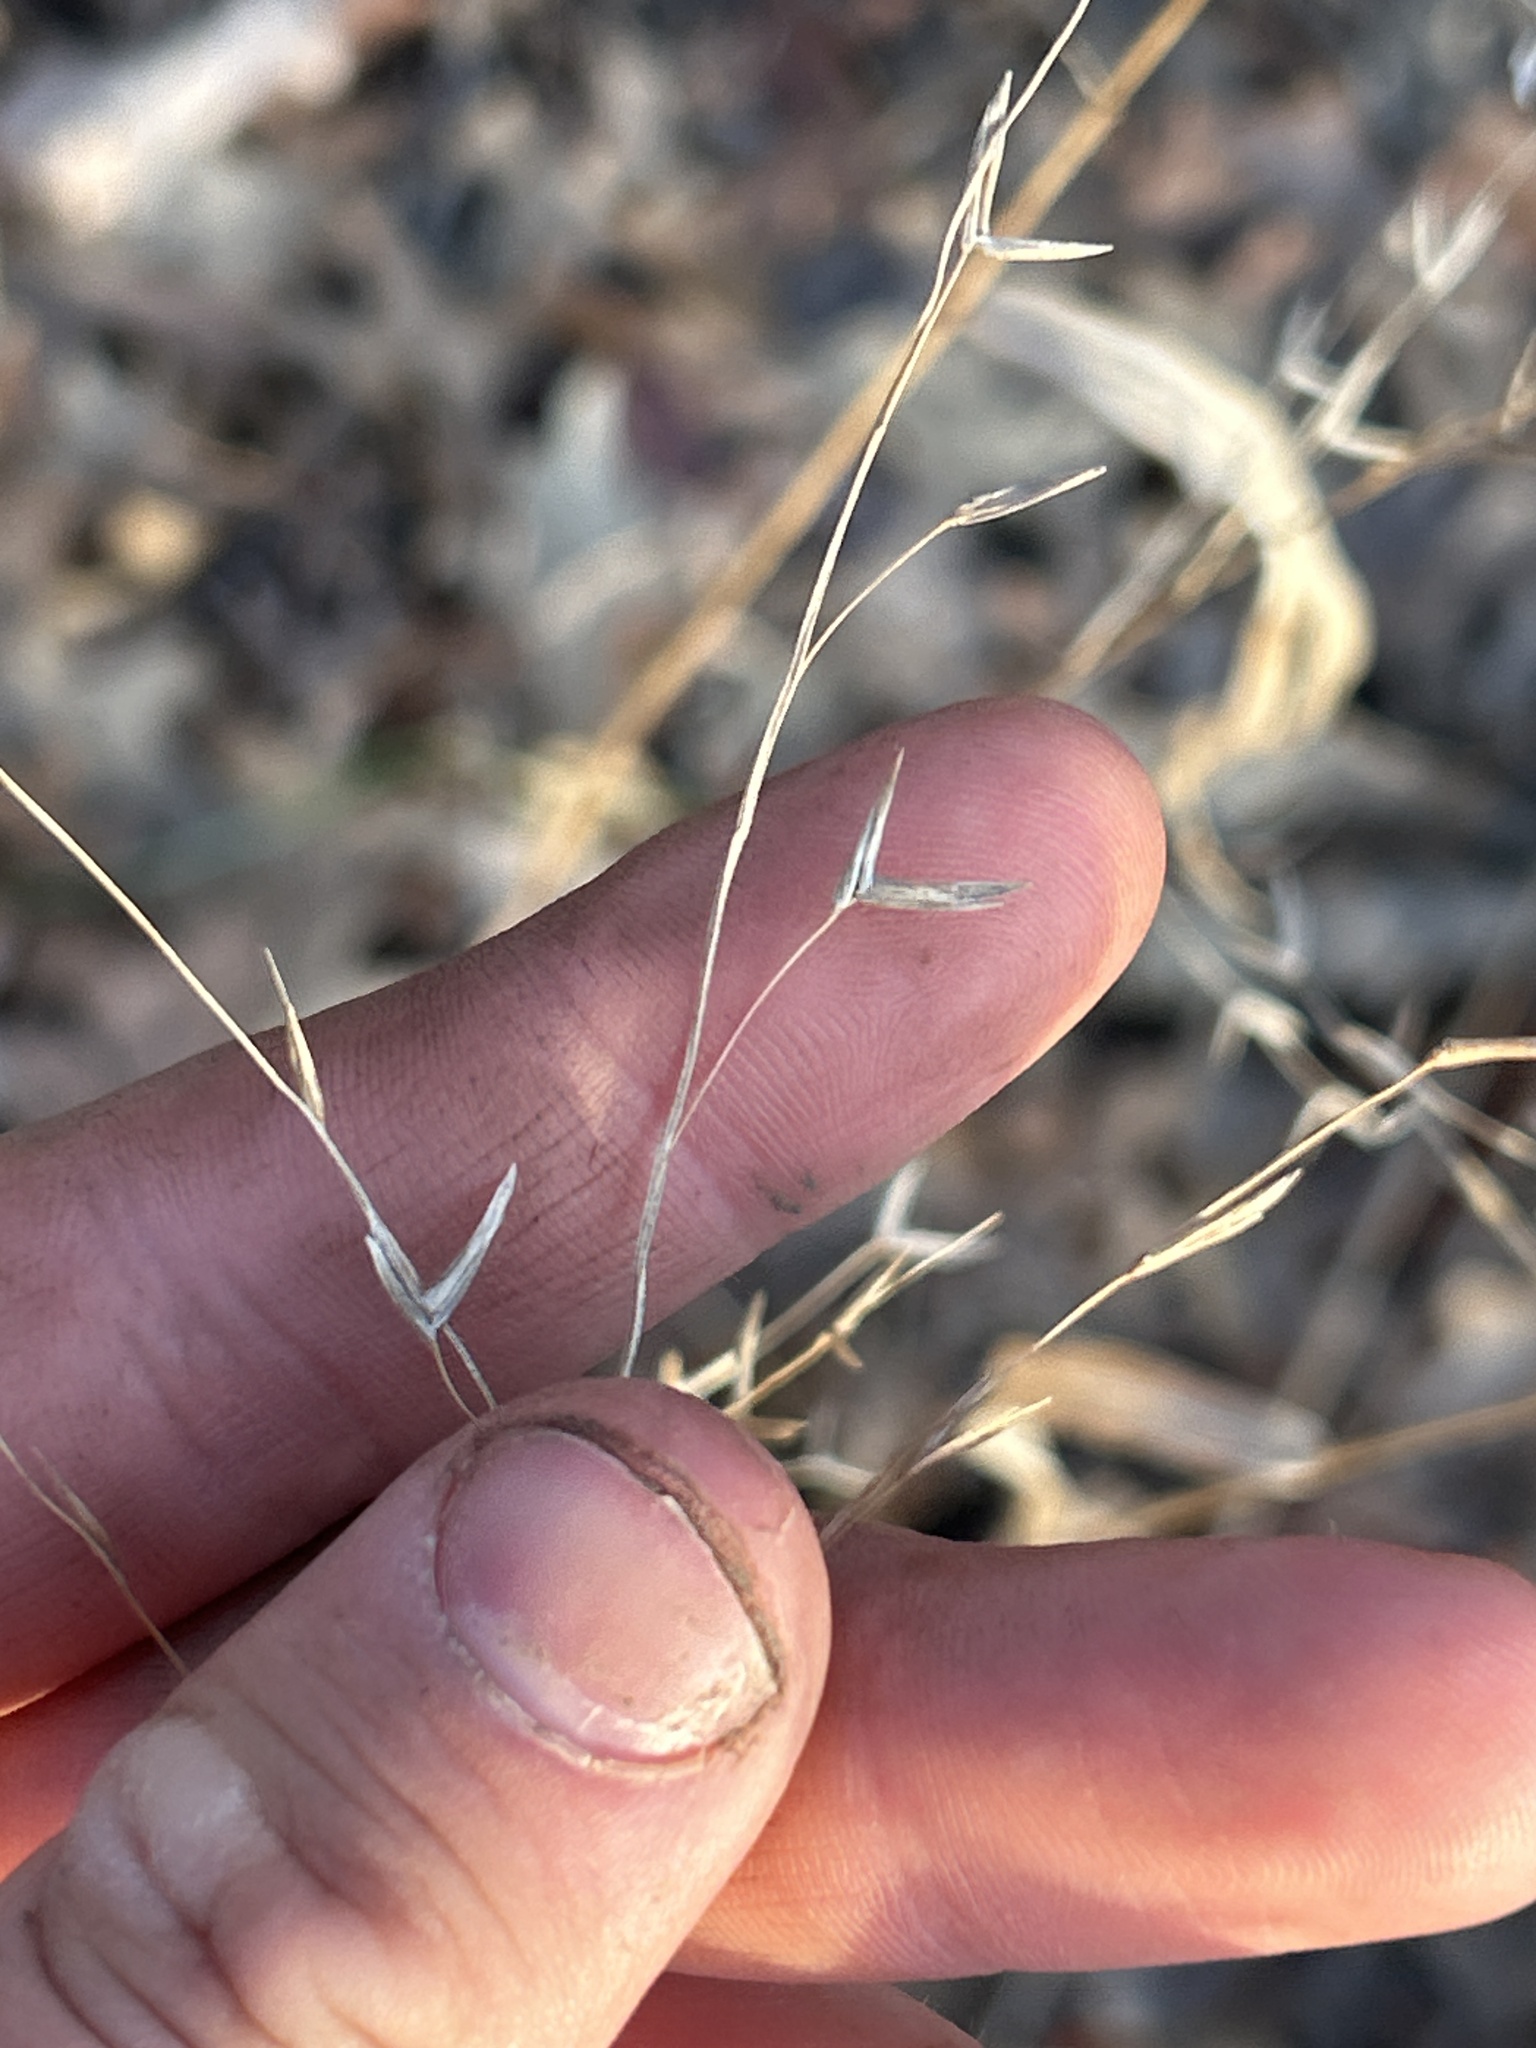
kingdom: Plantae
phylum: Tracheophyta
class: Liliopsida
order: Poales
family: Poaceae
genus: Chasmanthium
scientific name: Chasmanthium latifolium
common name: Broad-leaved chasmanthium
